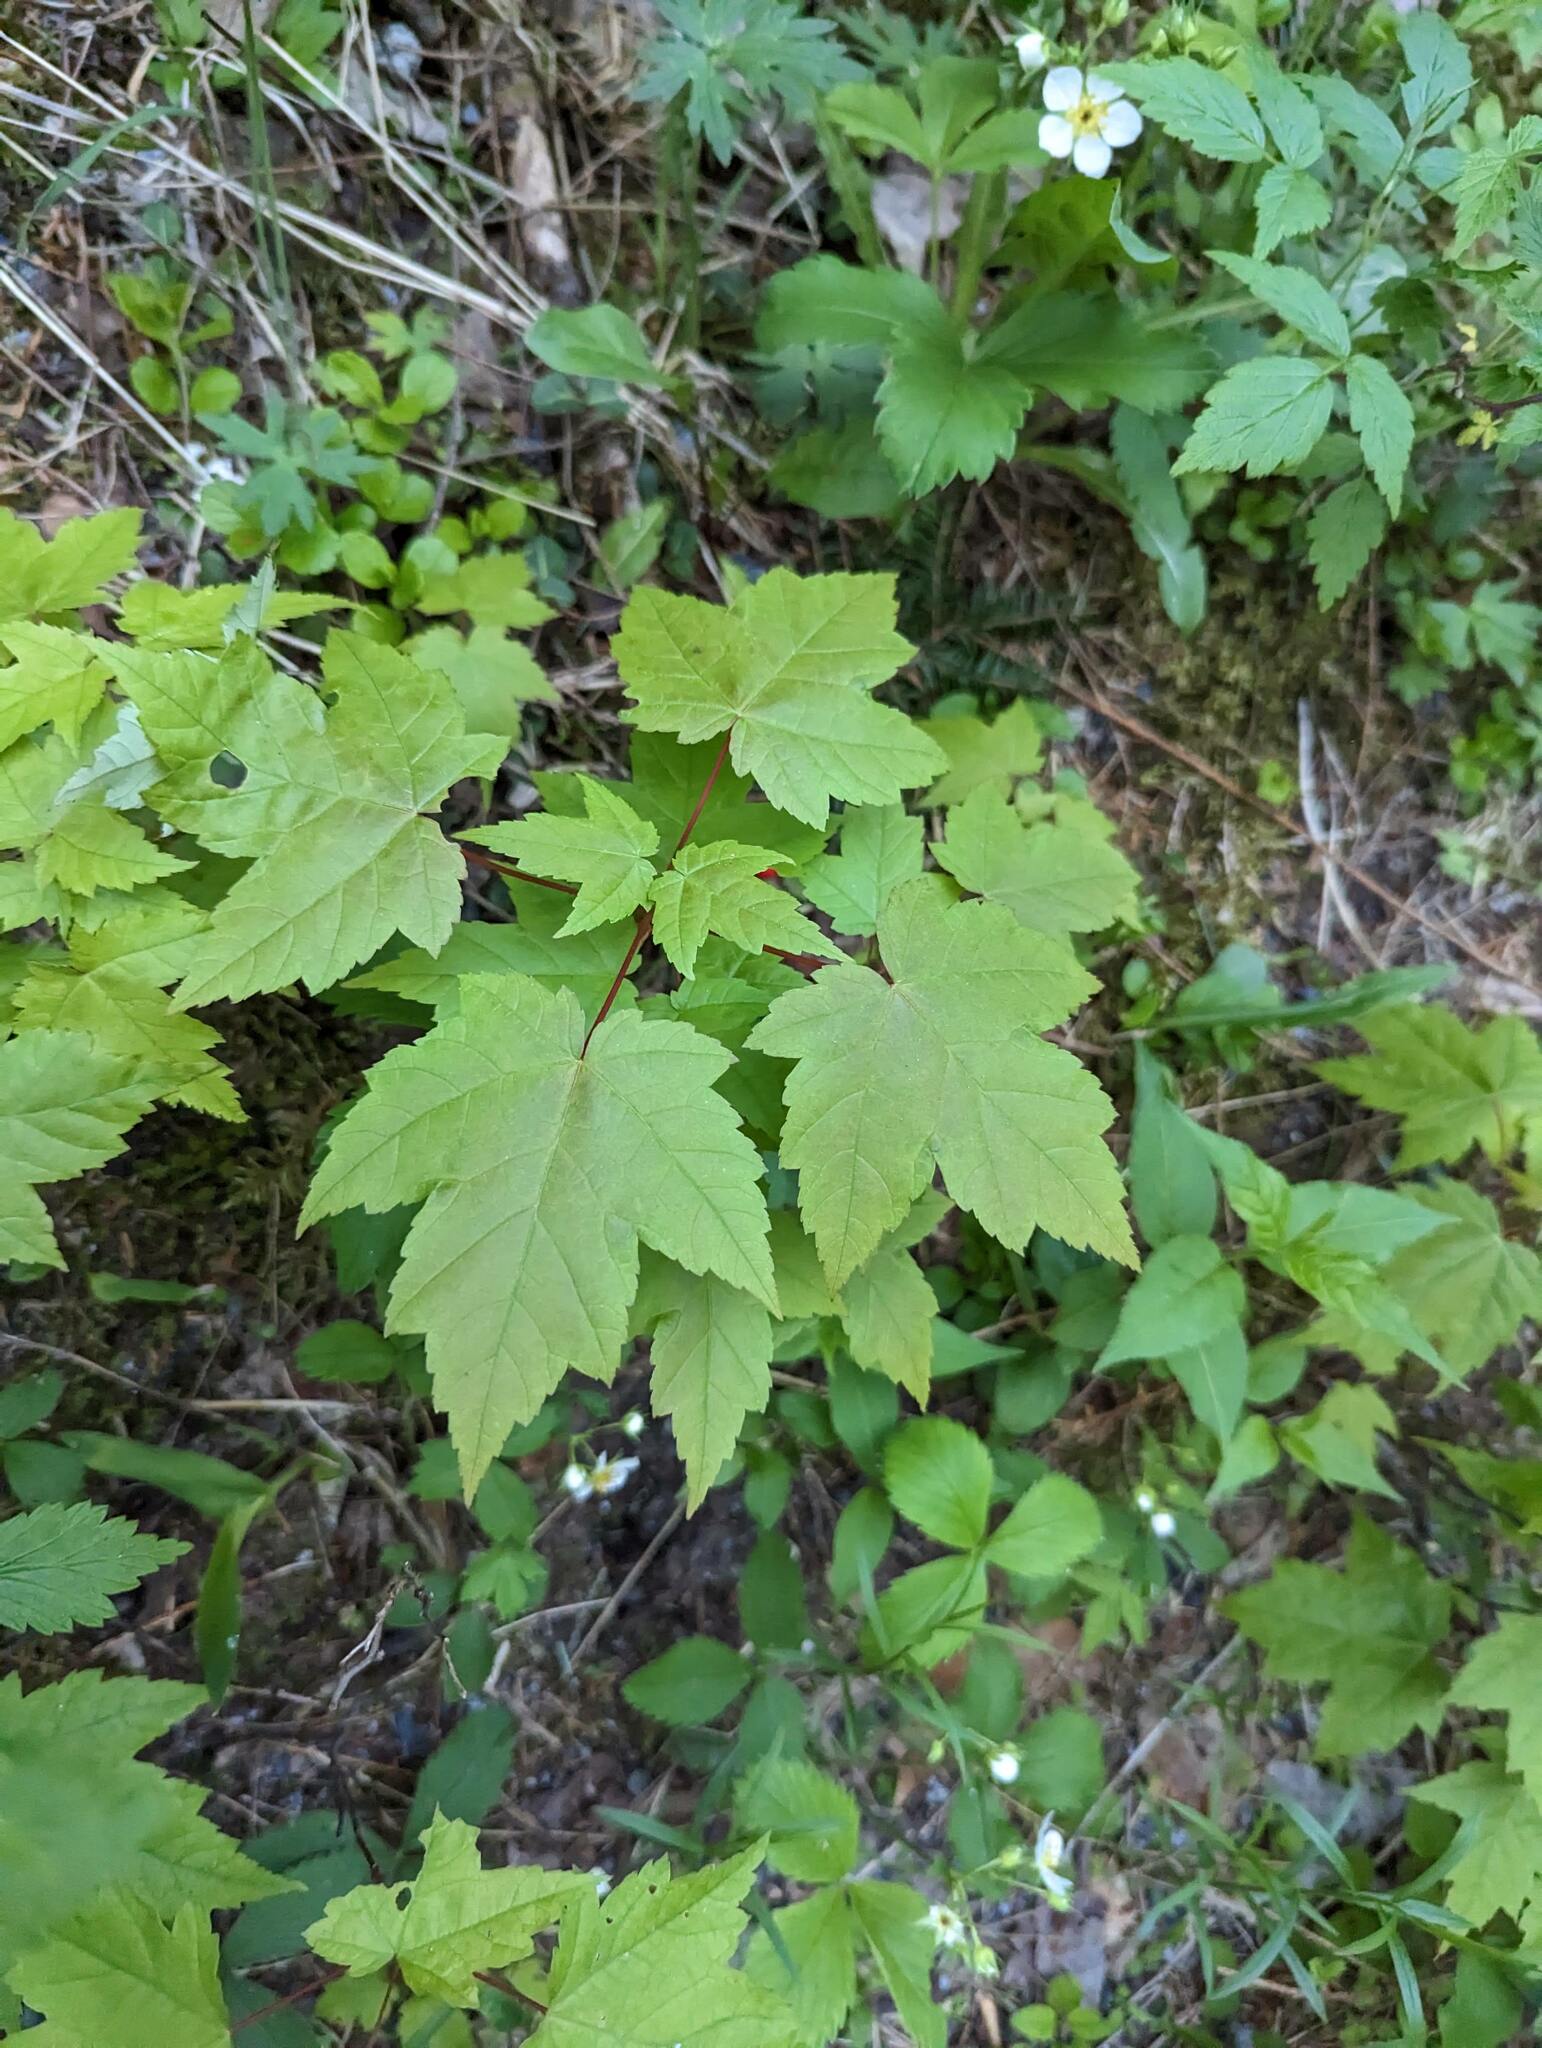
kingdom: Plantae
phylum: Tracheophyta
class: Magnoliopsida
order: Sapindales
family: Sapindaceae
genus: Acer
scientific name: Acer rubrum
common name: Red maple
